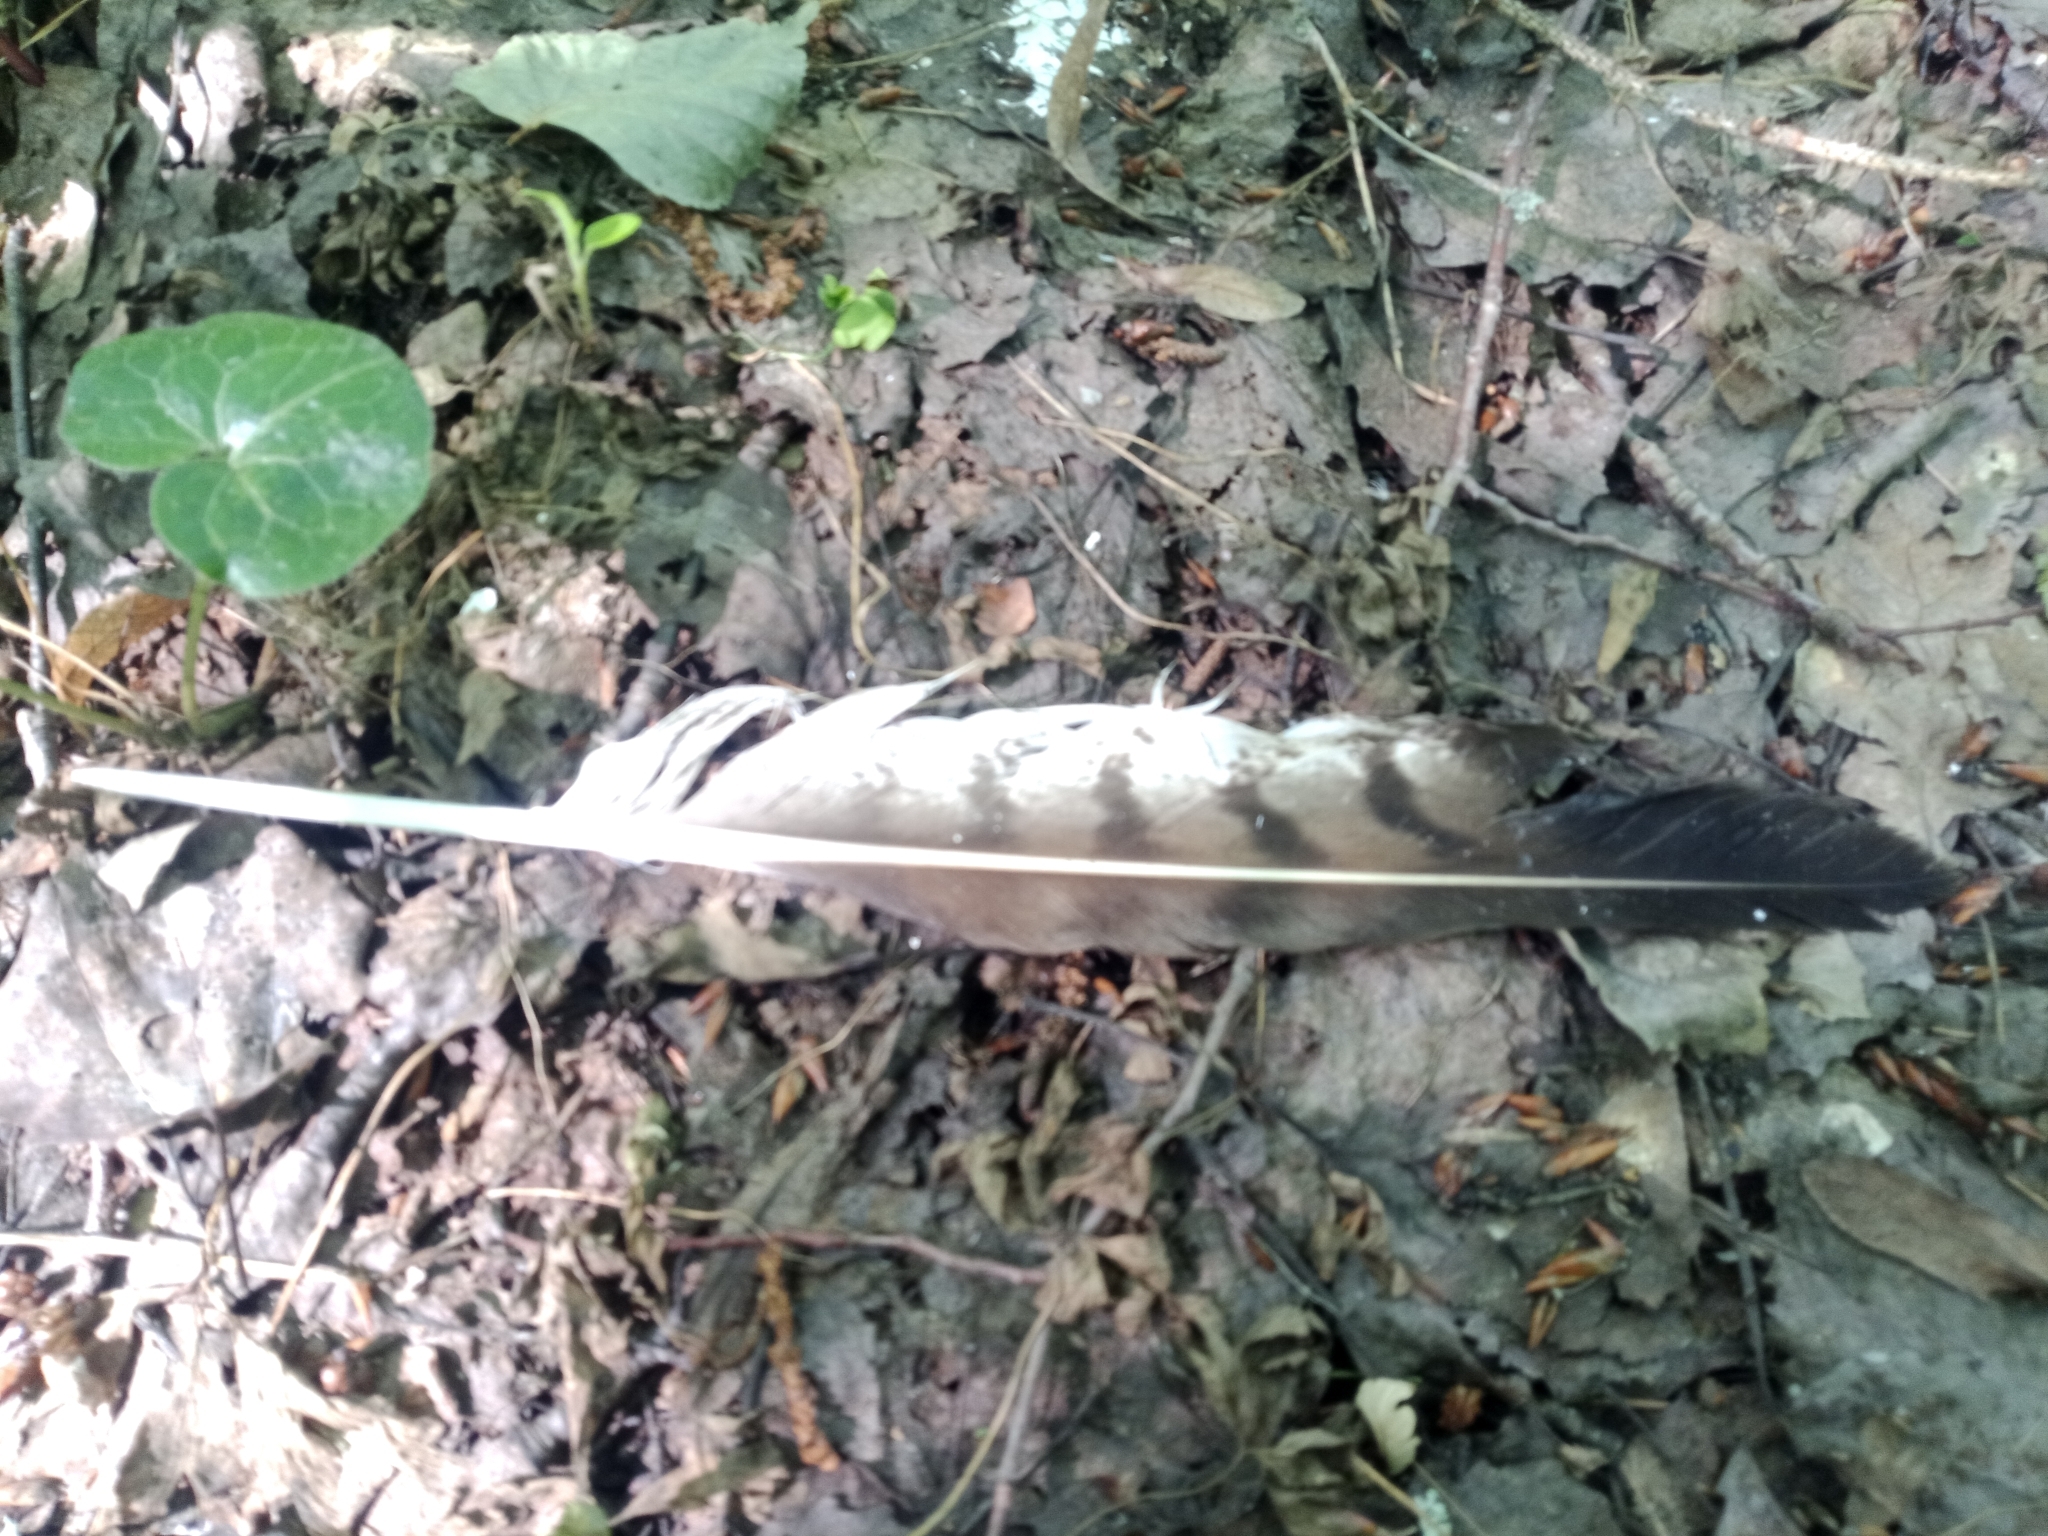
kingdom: Animalia
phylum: Chordata
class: Aves
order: Accipitriformes
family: Accipitridae
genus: Buteo
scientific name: Buteo buteo
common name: Common buzzard
